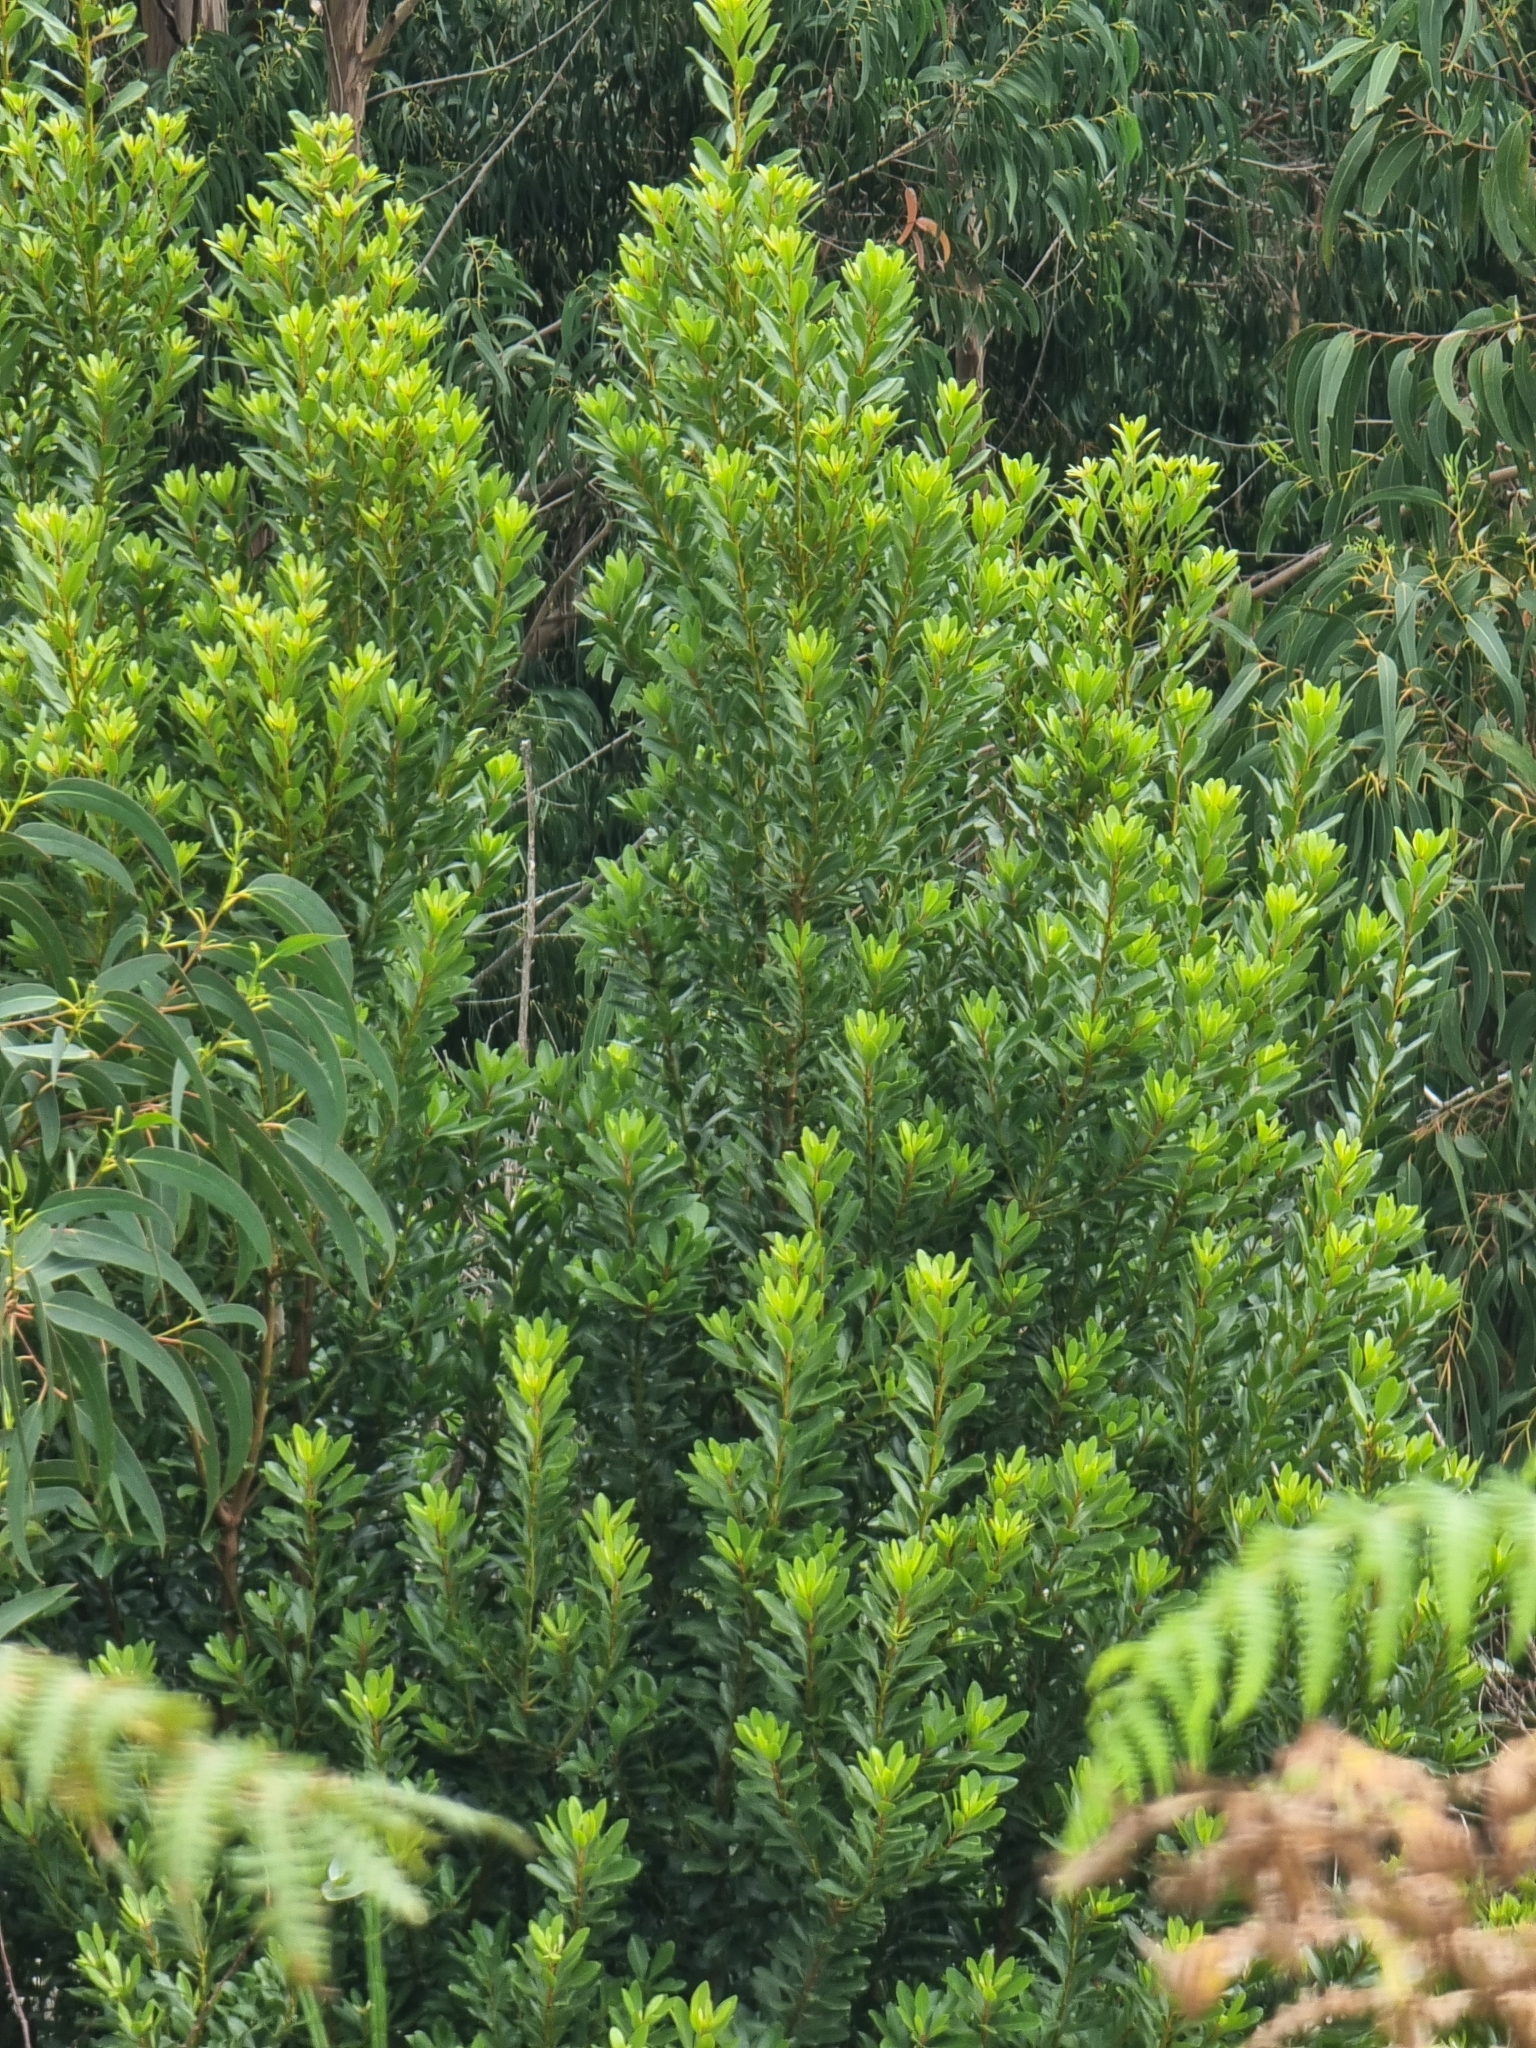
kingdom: Plantae
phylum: Tracheophyta
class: Magnoliopsida
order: Fagales
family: Myricaceae
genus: Morella
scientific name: Morella faya
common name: Firetree
